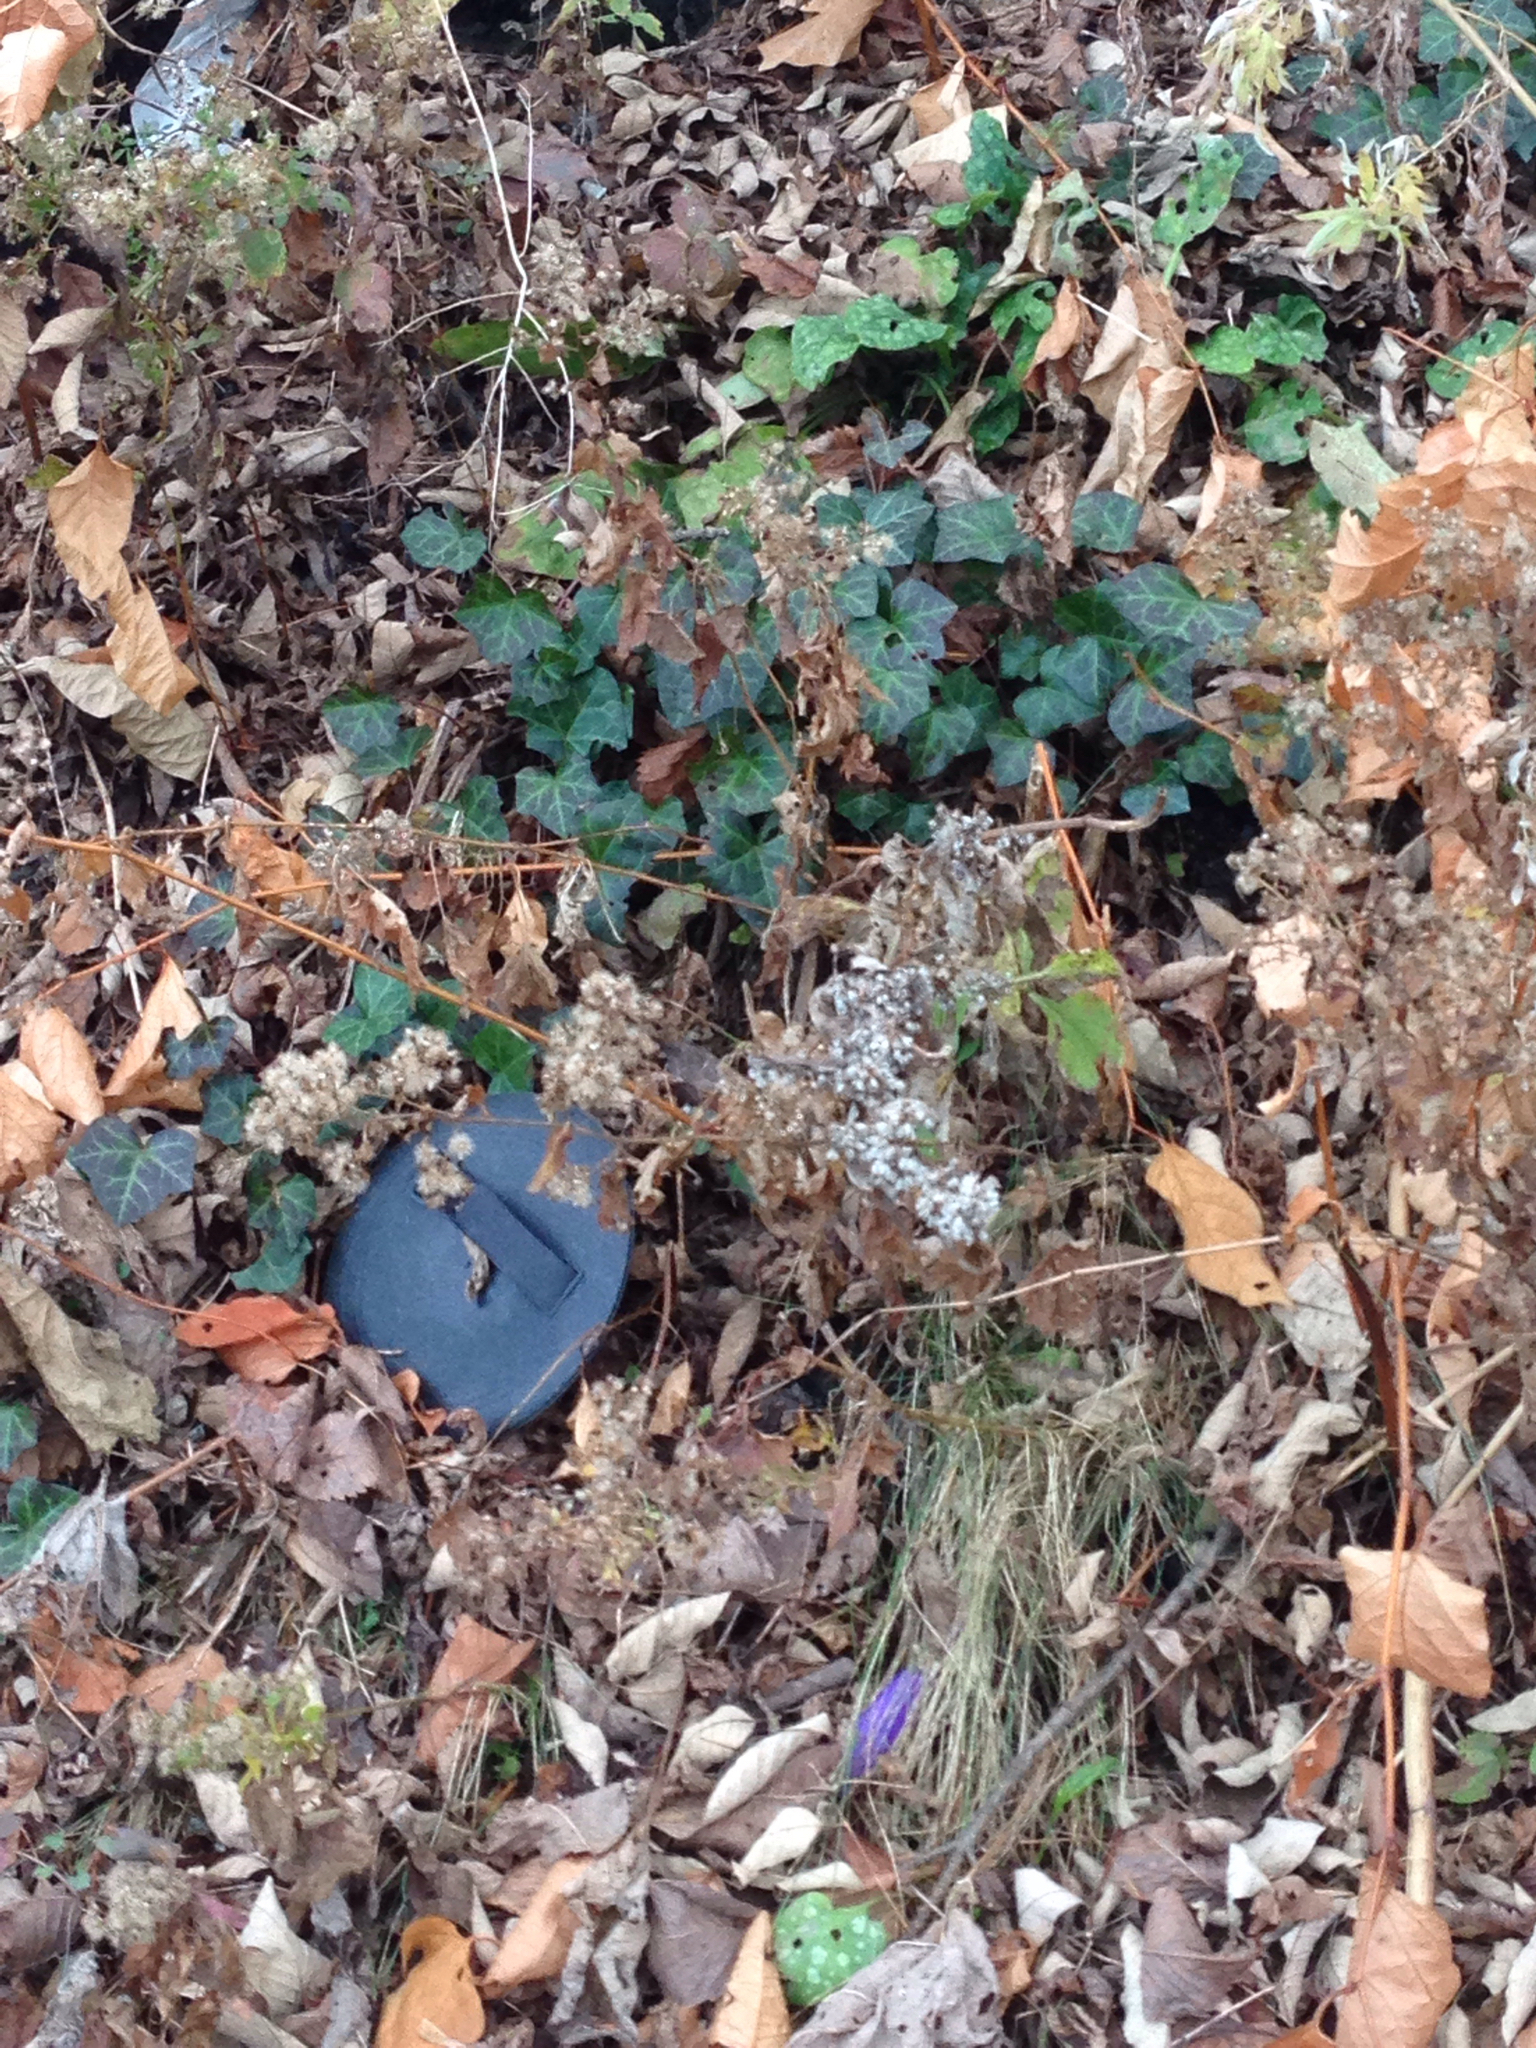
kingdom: Plantae
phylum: Tracheophyta
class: Magnoliopsida
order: Apiales
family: Araliaceae
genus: Hedera
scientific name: Hedera helix
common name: Ivy
